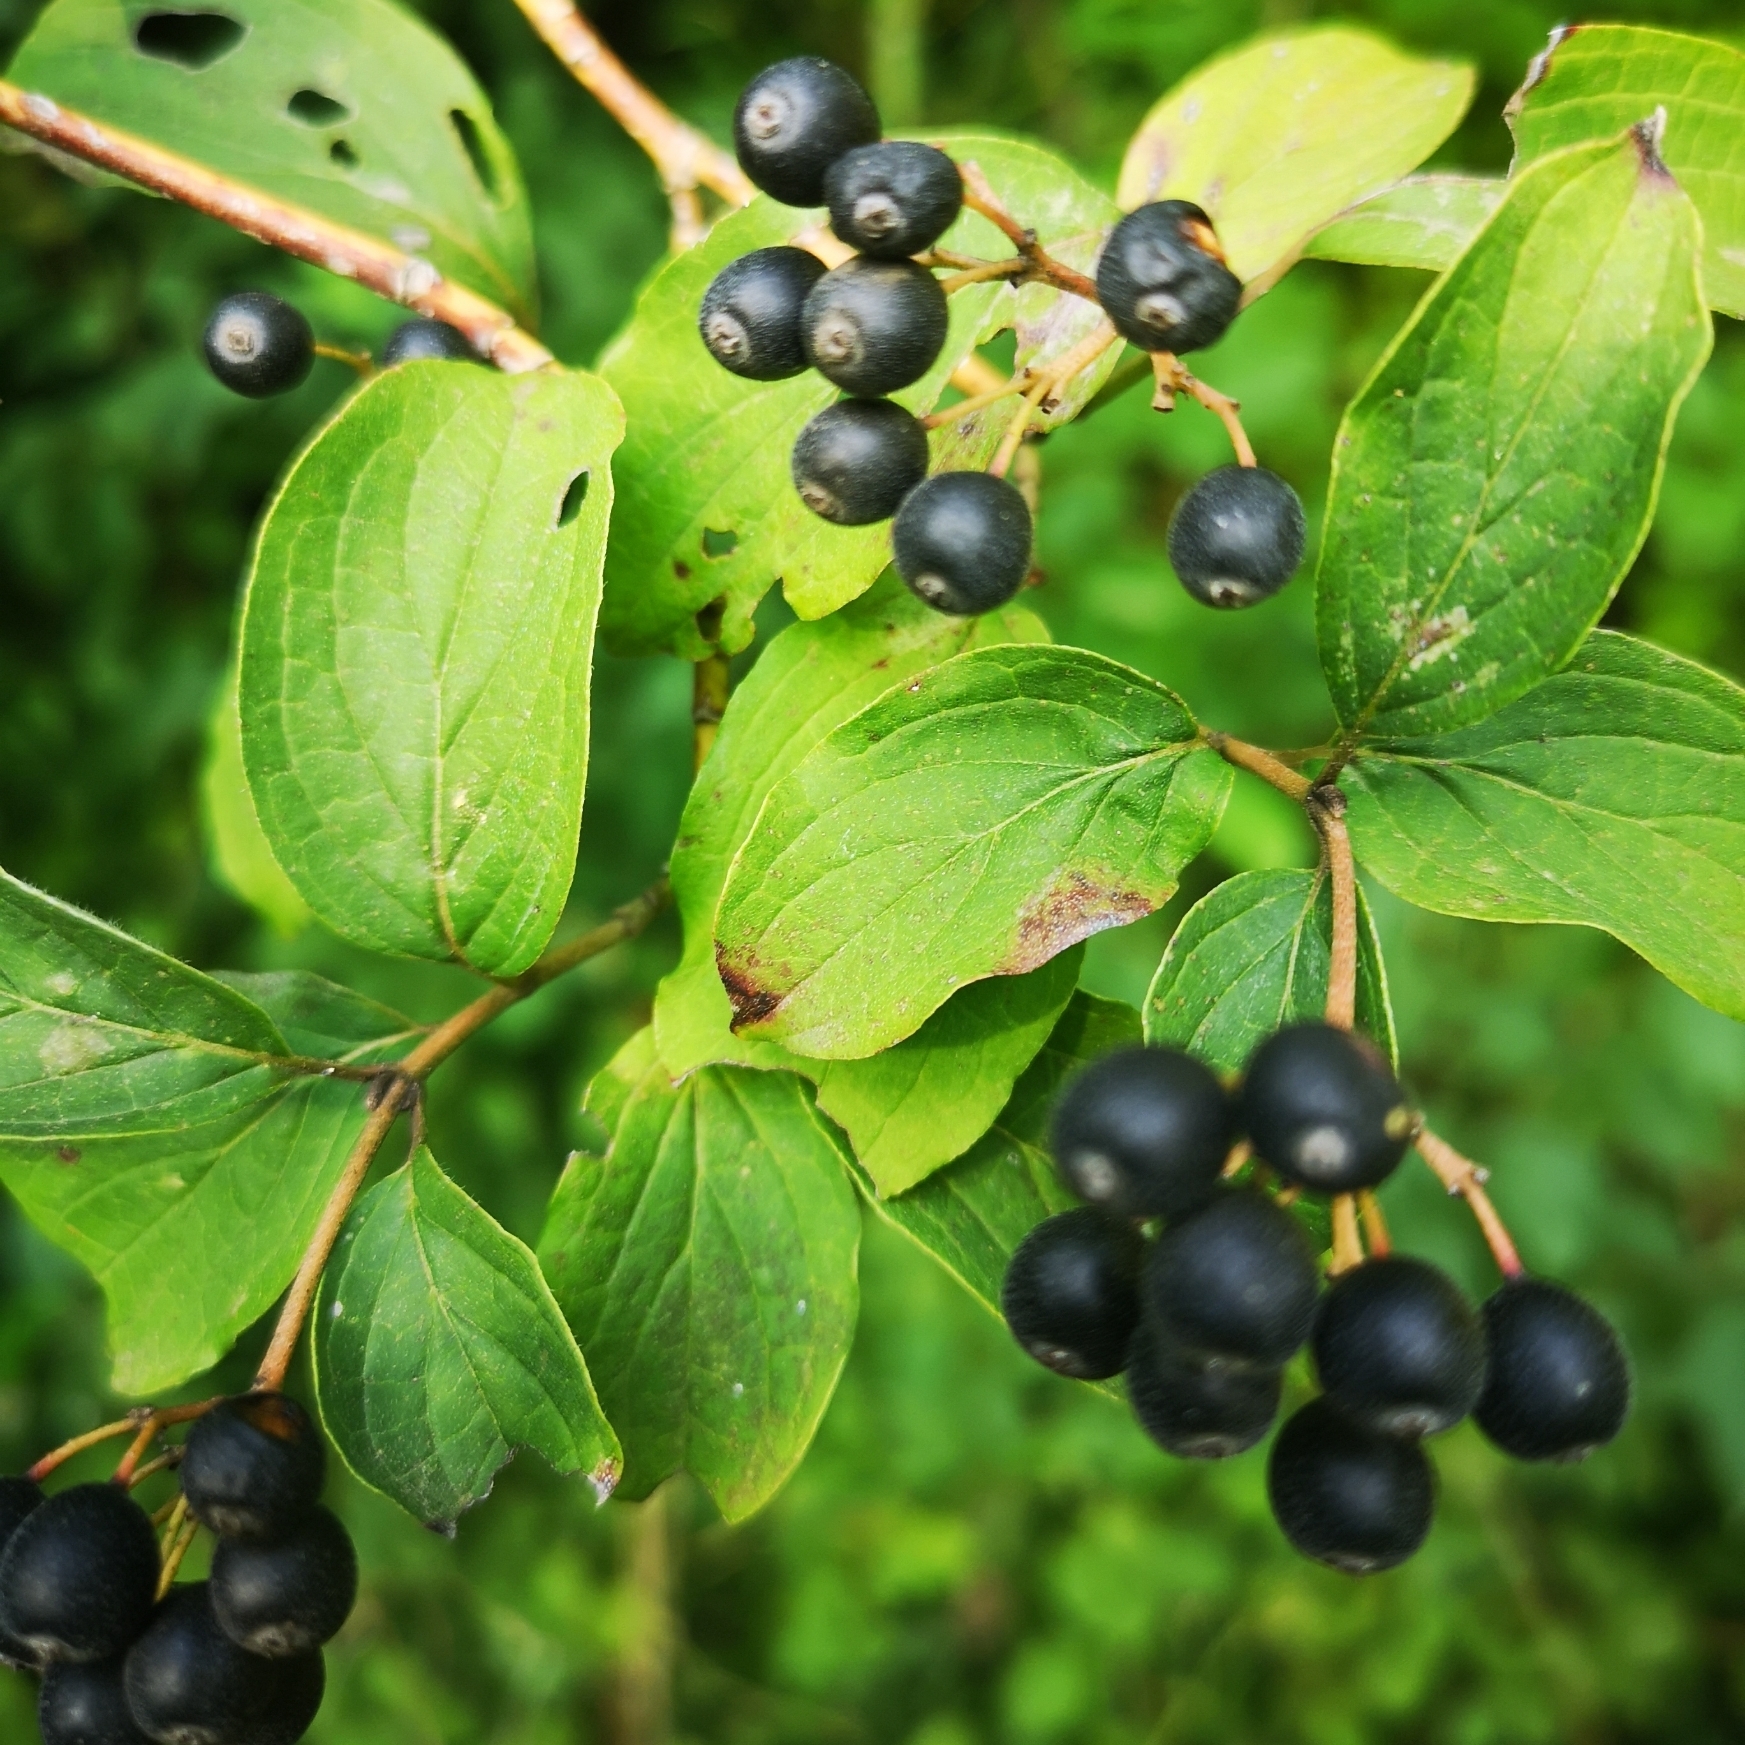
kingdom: Plantae
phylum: Tracheophyta
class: Magnoliopsida
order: Cornales
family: Cornaceae
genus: Cornus
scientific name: Cornus sanguinea
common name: Dogwood
